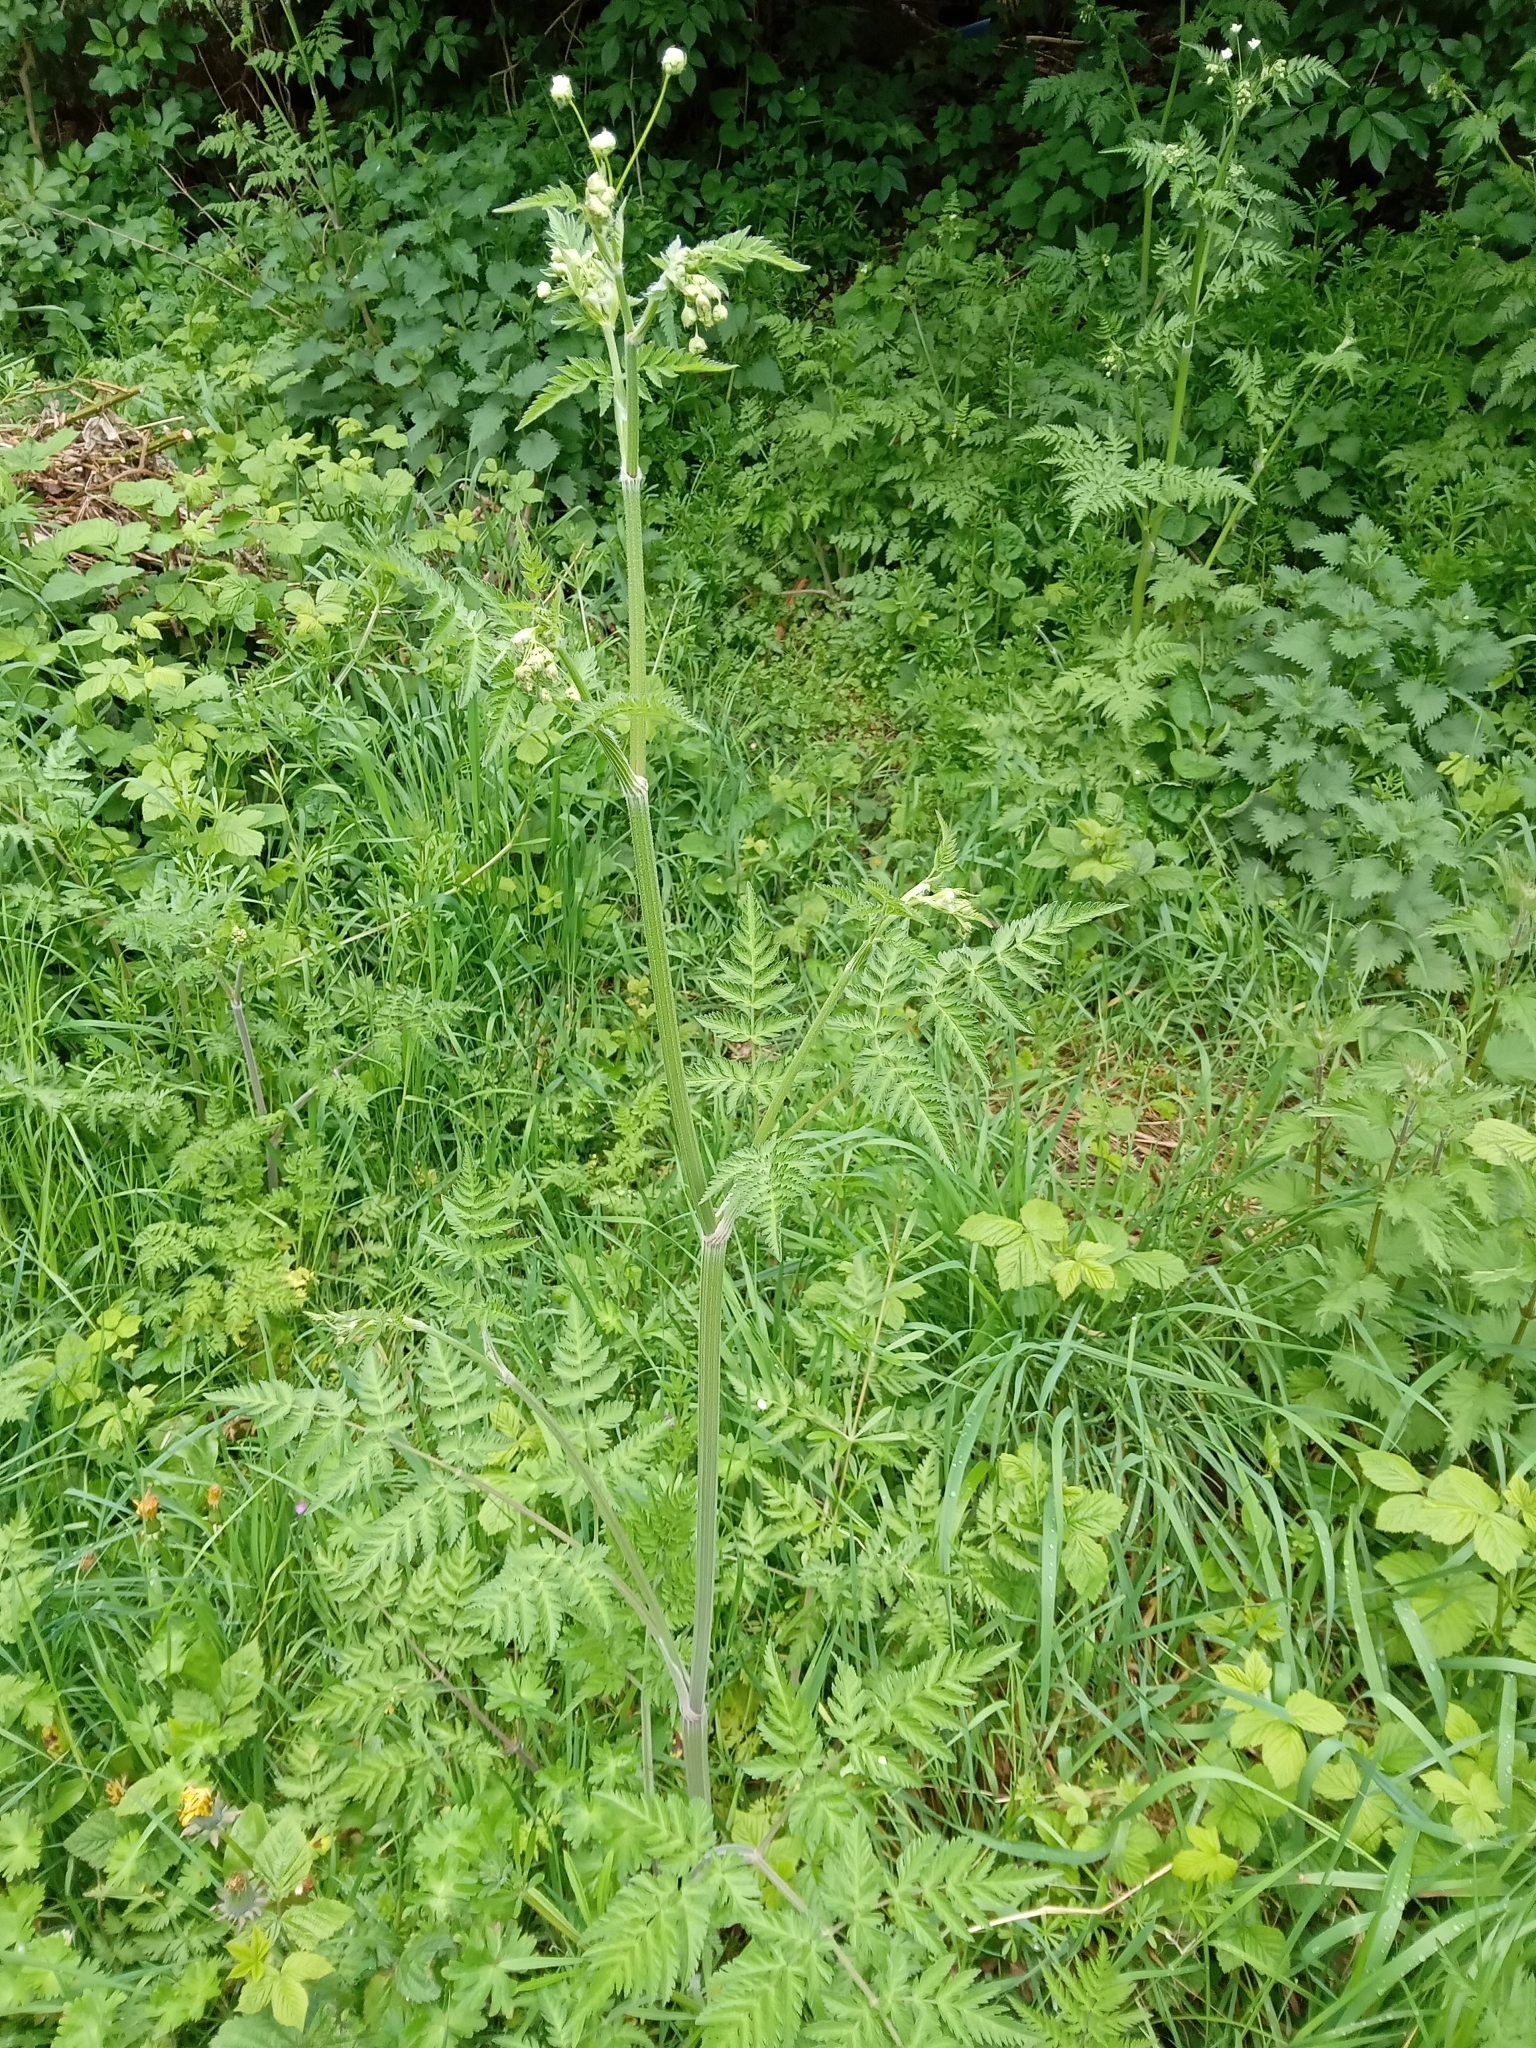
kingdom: Plantae
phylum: Tracheophyta
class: Magnoliopsida
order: Apiales
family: Apiaceae
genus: Anthriscus
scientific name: Anthriscus sylvestris
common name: Cow parsley
